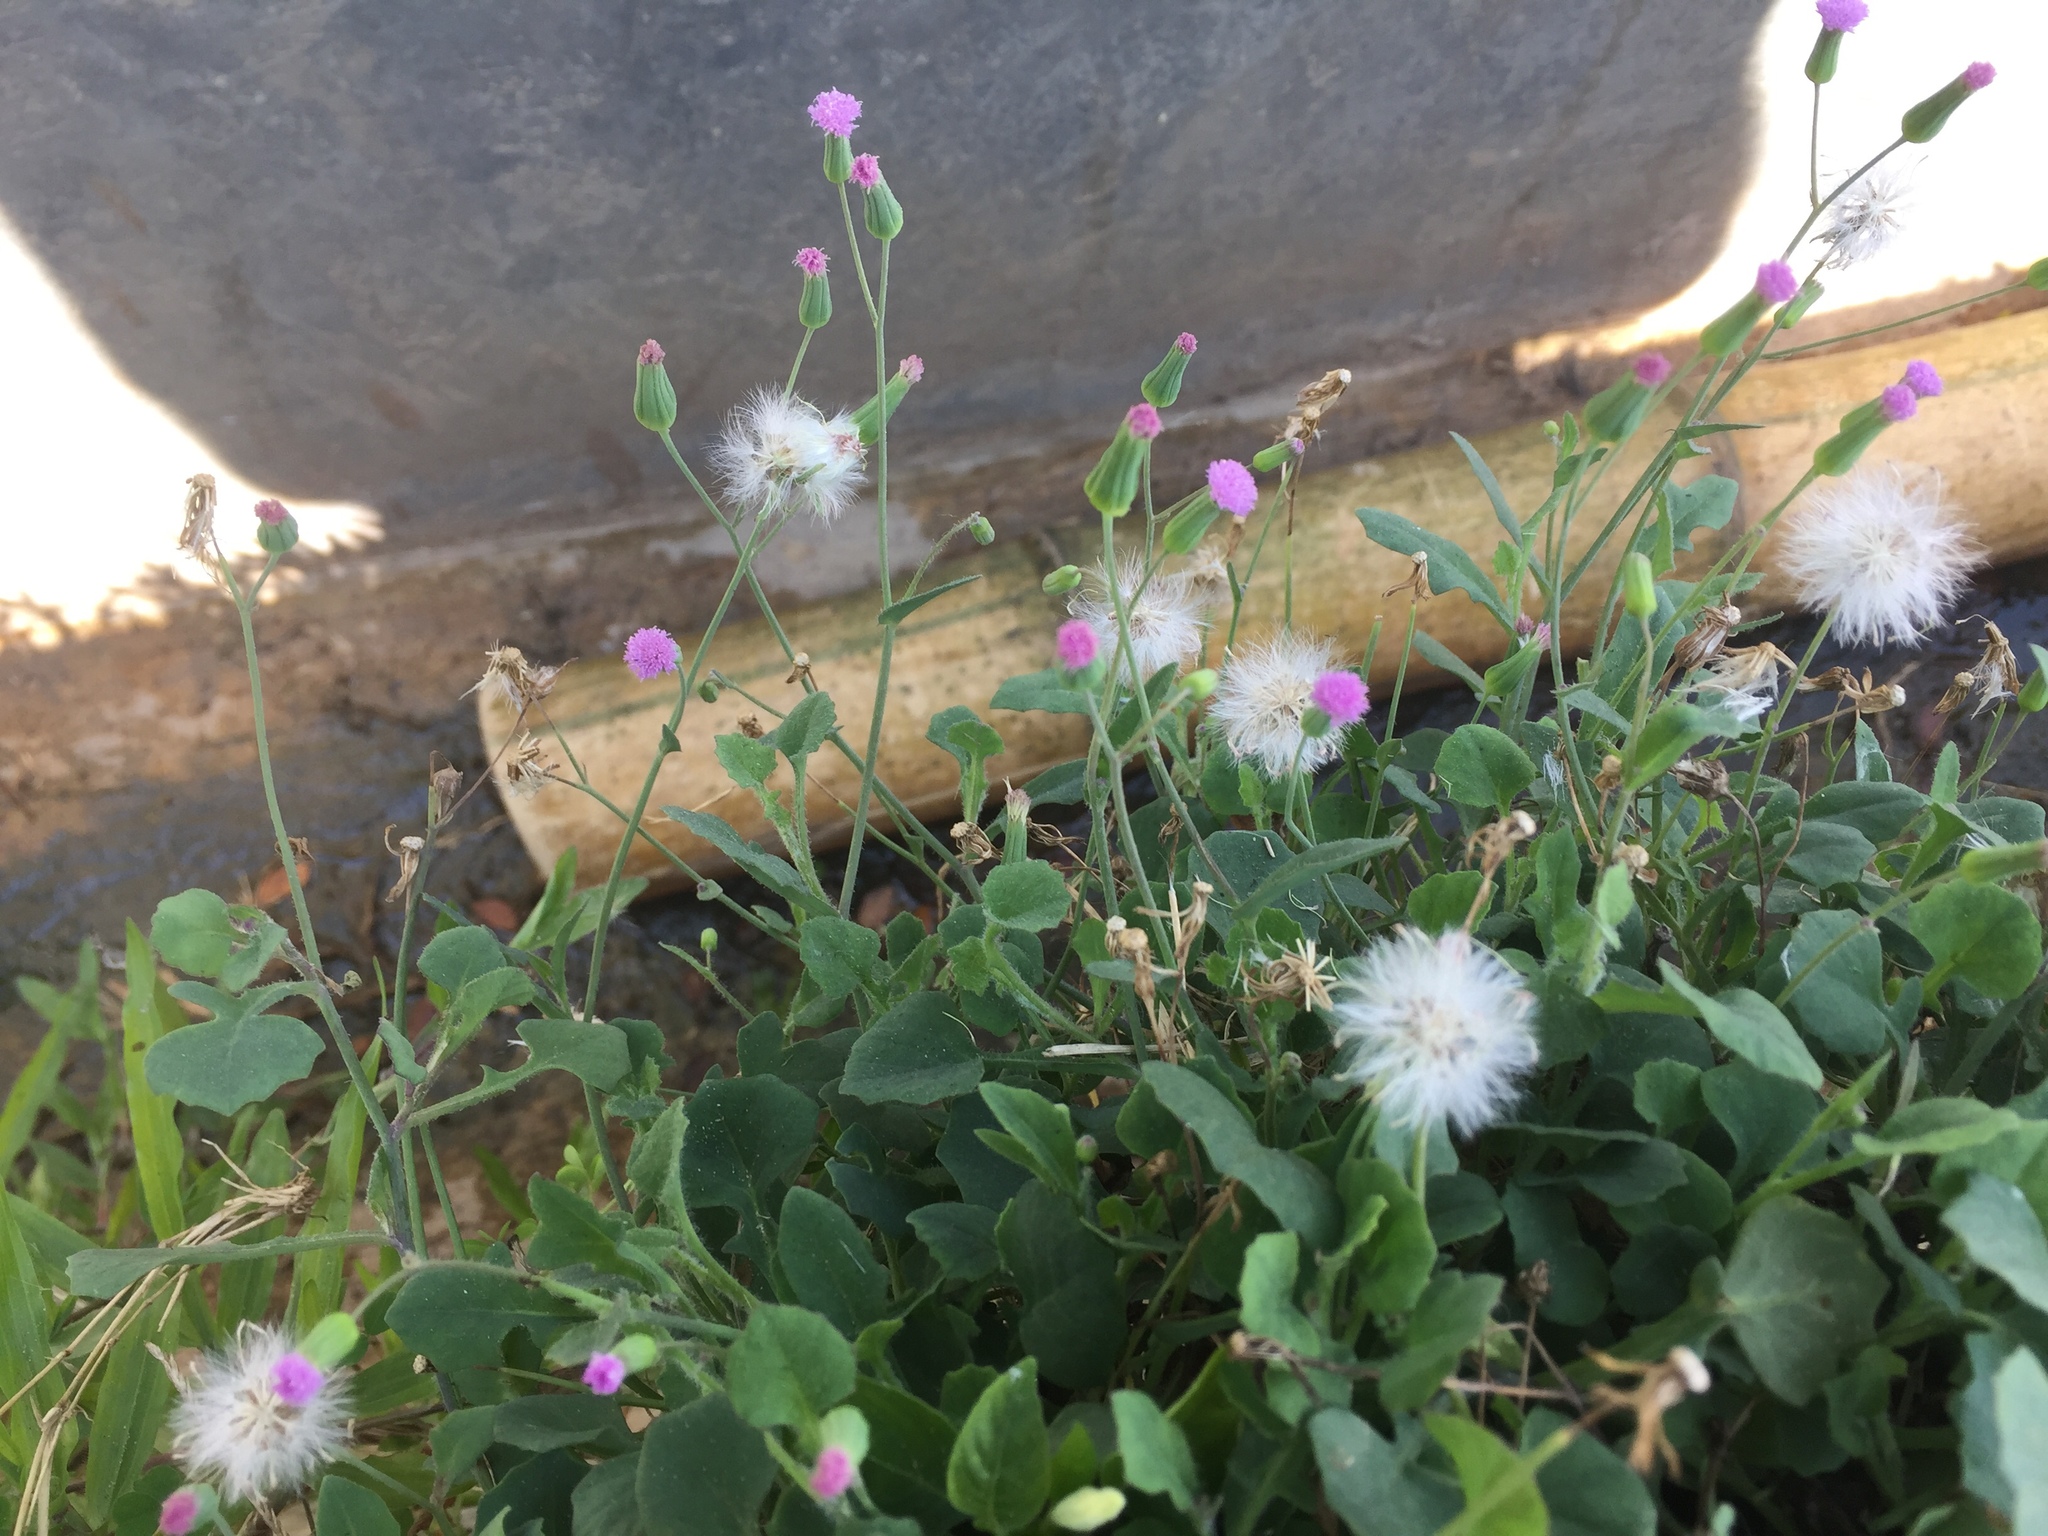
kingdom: Plantae
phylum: Tracheophyta
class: Magnoliopsida
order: Asterales
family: Asteraceae
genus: Emilia
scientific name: Emilia sonchifolia
